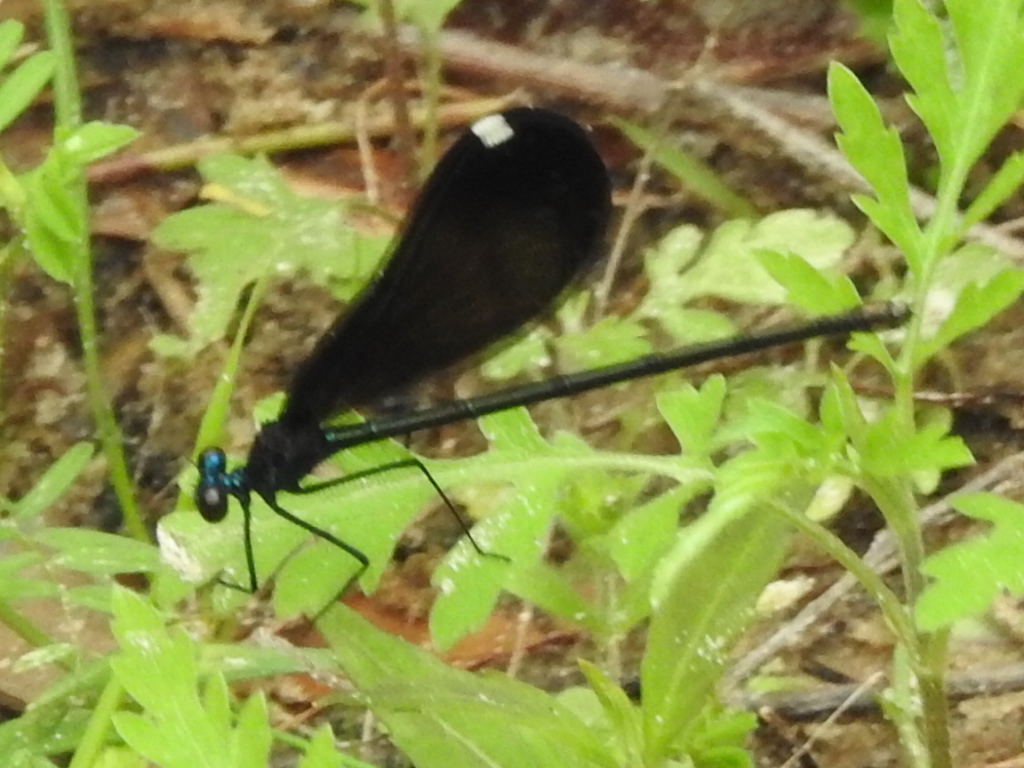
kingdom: Animalia
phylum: Arthropoda
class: Insecta
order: Odonata
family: Calopterygidae
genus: Calopteryx
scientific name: Calopteryx maculata
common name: Ebony jewelwing
